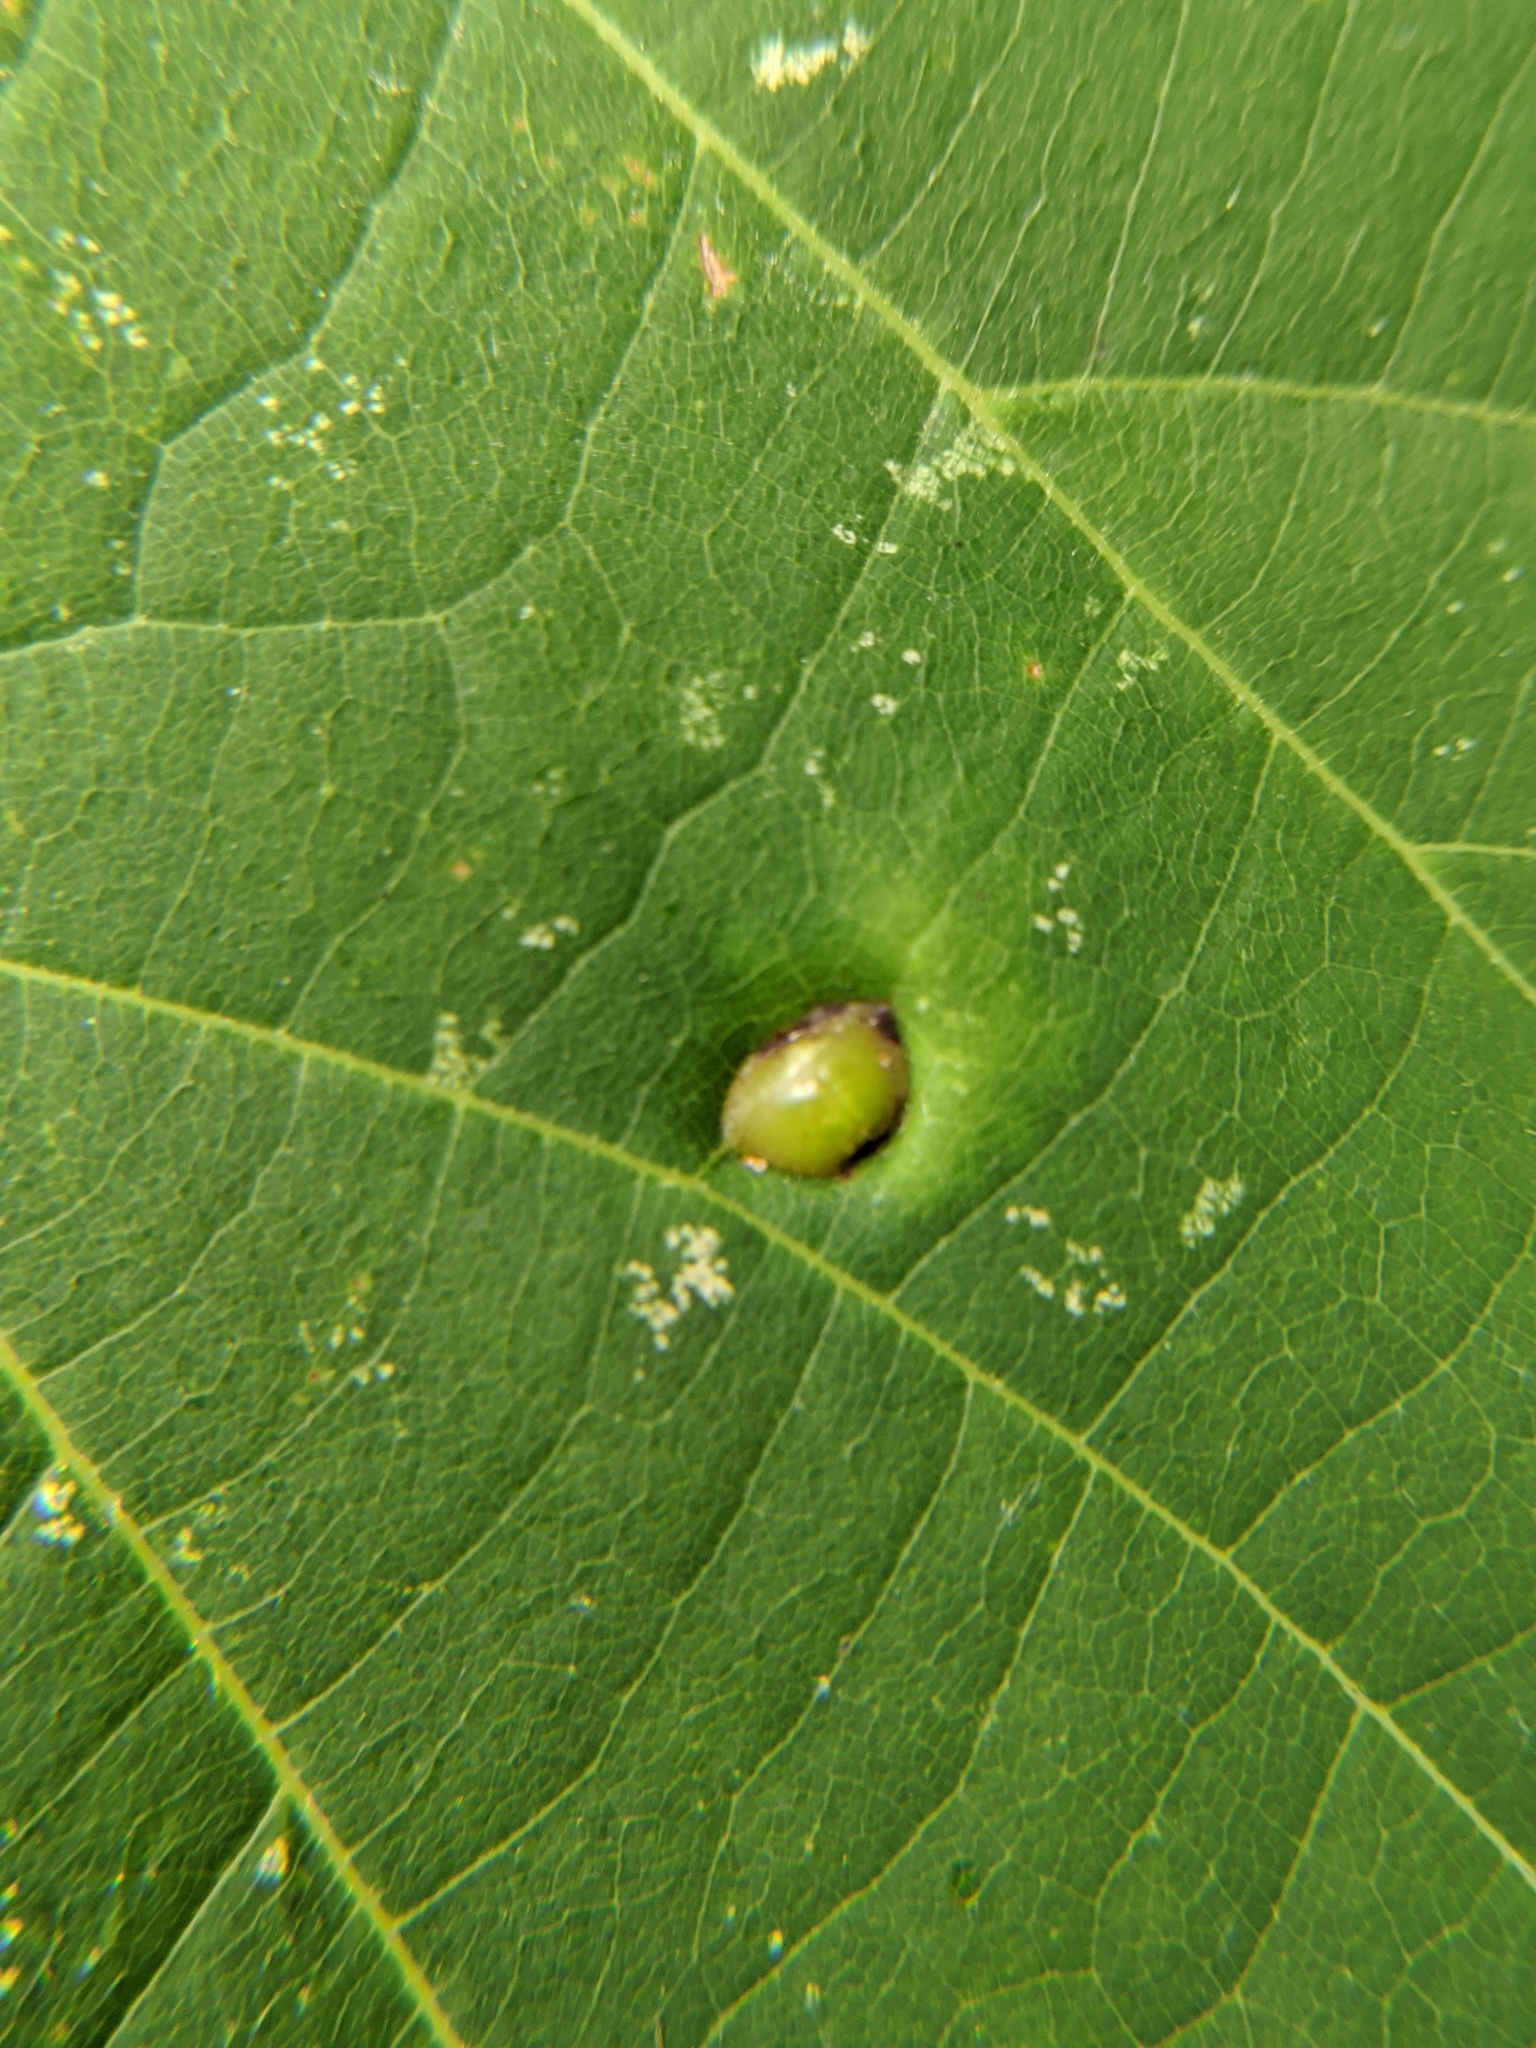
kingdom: Animalia
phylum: Arthropoda
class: Insecta
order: Diptera
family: Cecidomyiidae
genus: Contarinia
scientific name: Contarinia verrucicola
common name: Linden wart gall midge
